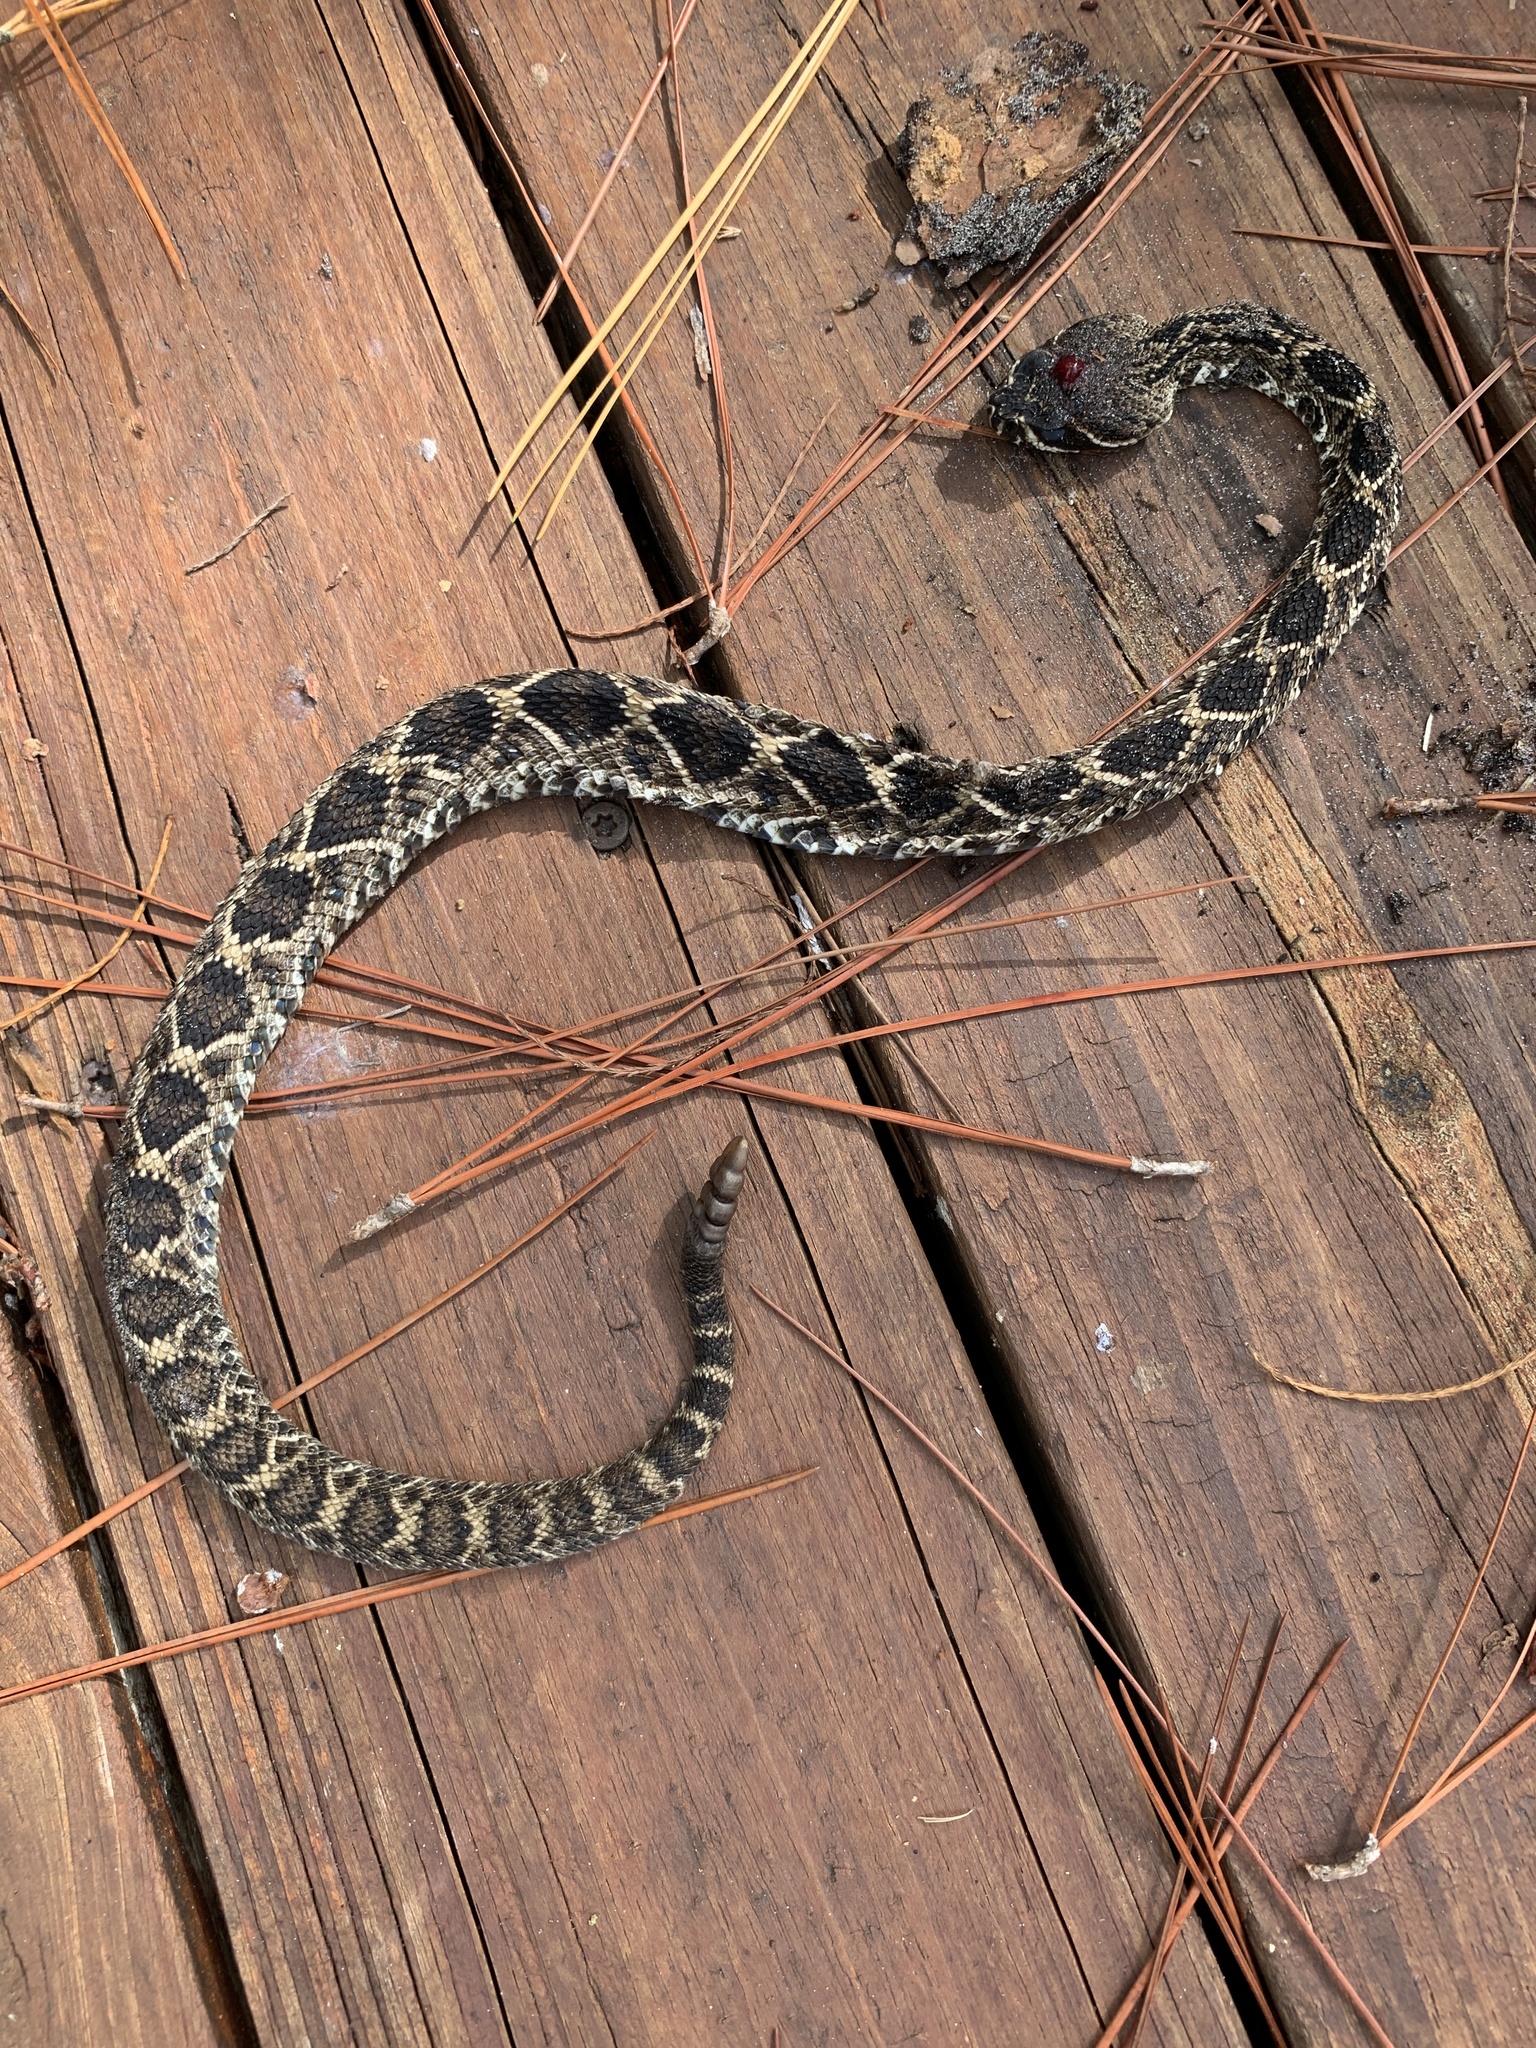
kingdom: Animalia
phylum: Chordata
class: Squamata
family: Viperidae
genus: Crotalus
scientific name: Crotalus adamanteus
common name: Eastern diamondback rattlesnake
